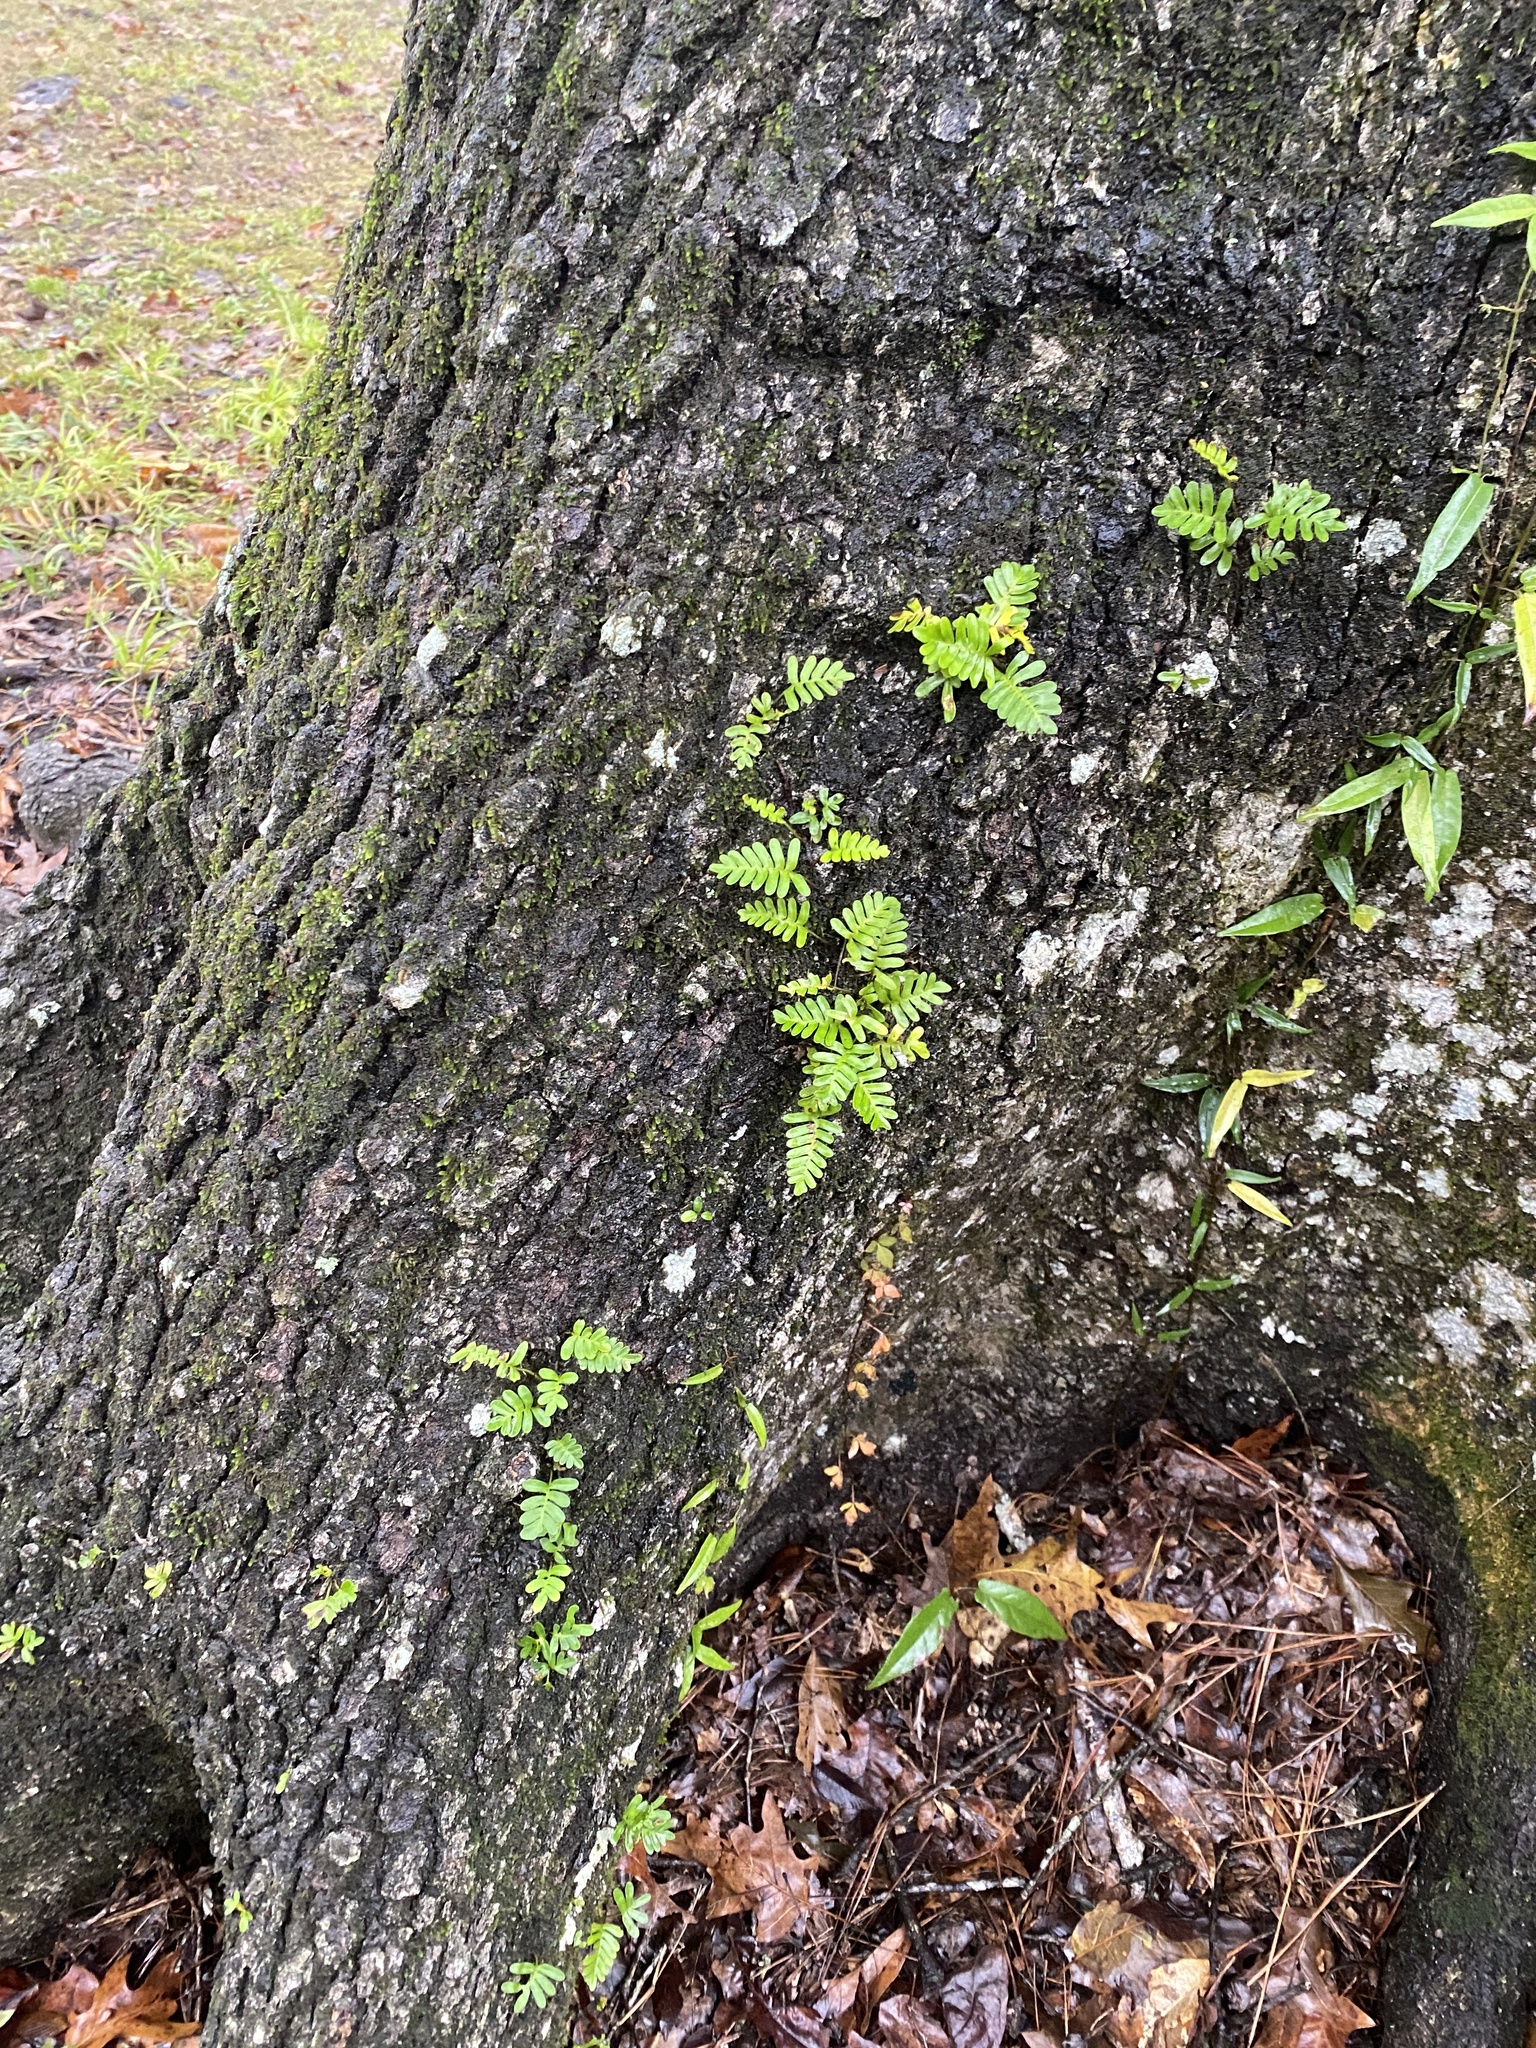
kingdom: Plantae
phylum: Tracheophyta
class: Polypodiopsida
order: Polypodiales
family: Polypodiaceae
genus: Pleopeltis
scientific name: Pleopeltis michauxiana
